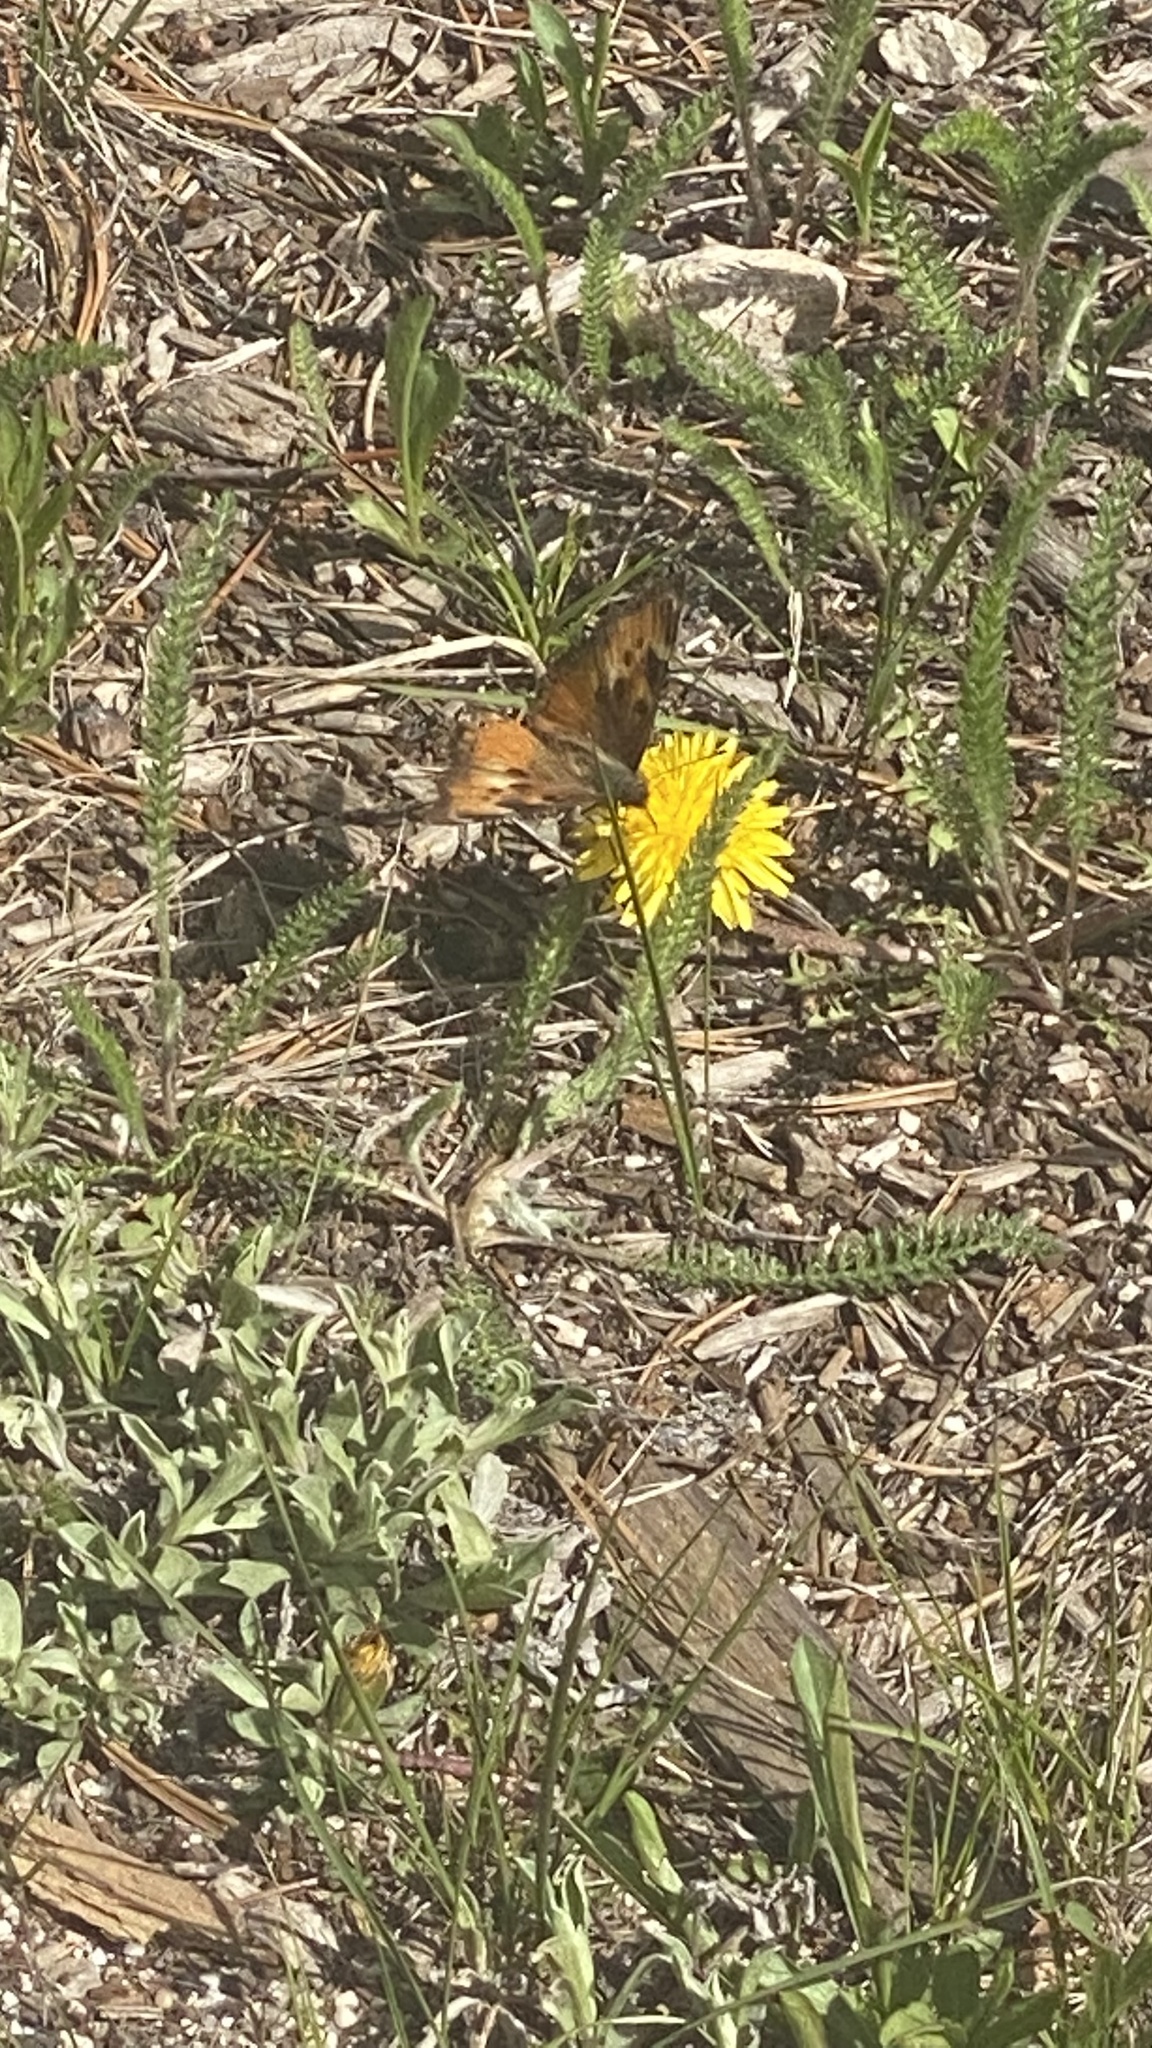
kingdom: Animalia
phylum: Arthropoda
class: Insecta
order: Lepidoptera
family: Nymphalidae
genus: Nymphalis
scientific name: Nymphalis californica
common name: California tortoiseshell
